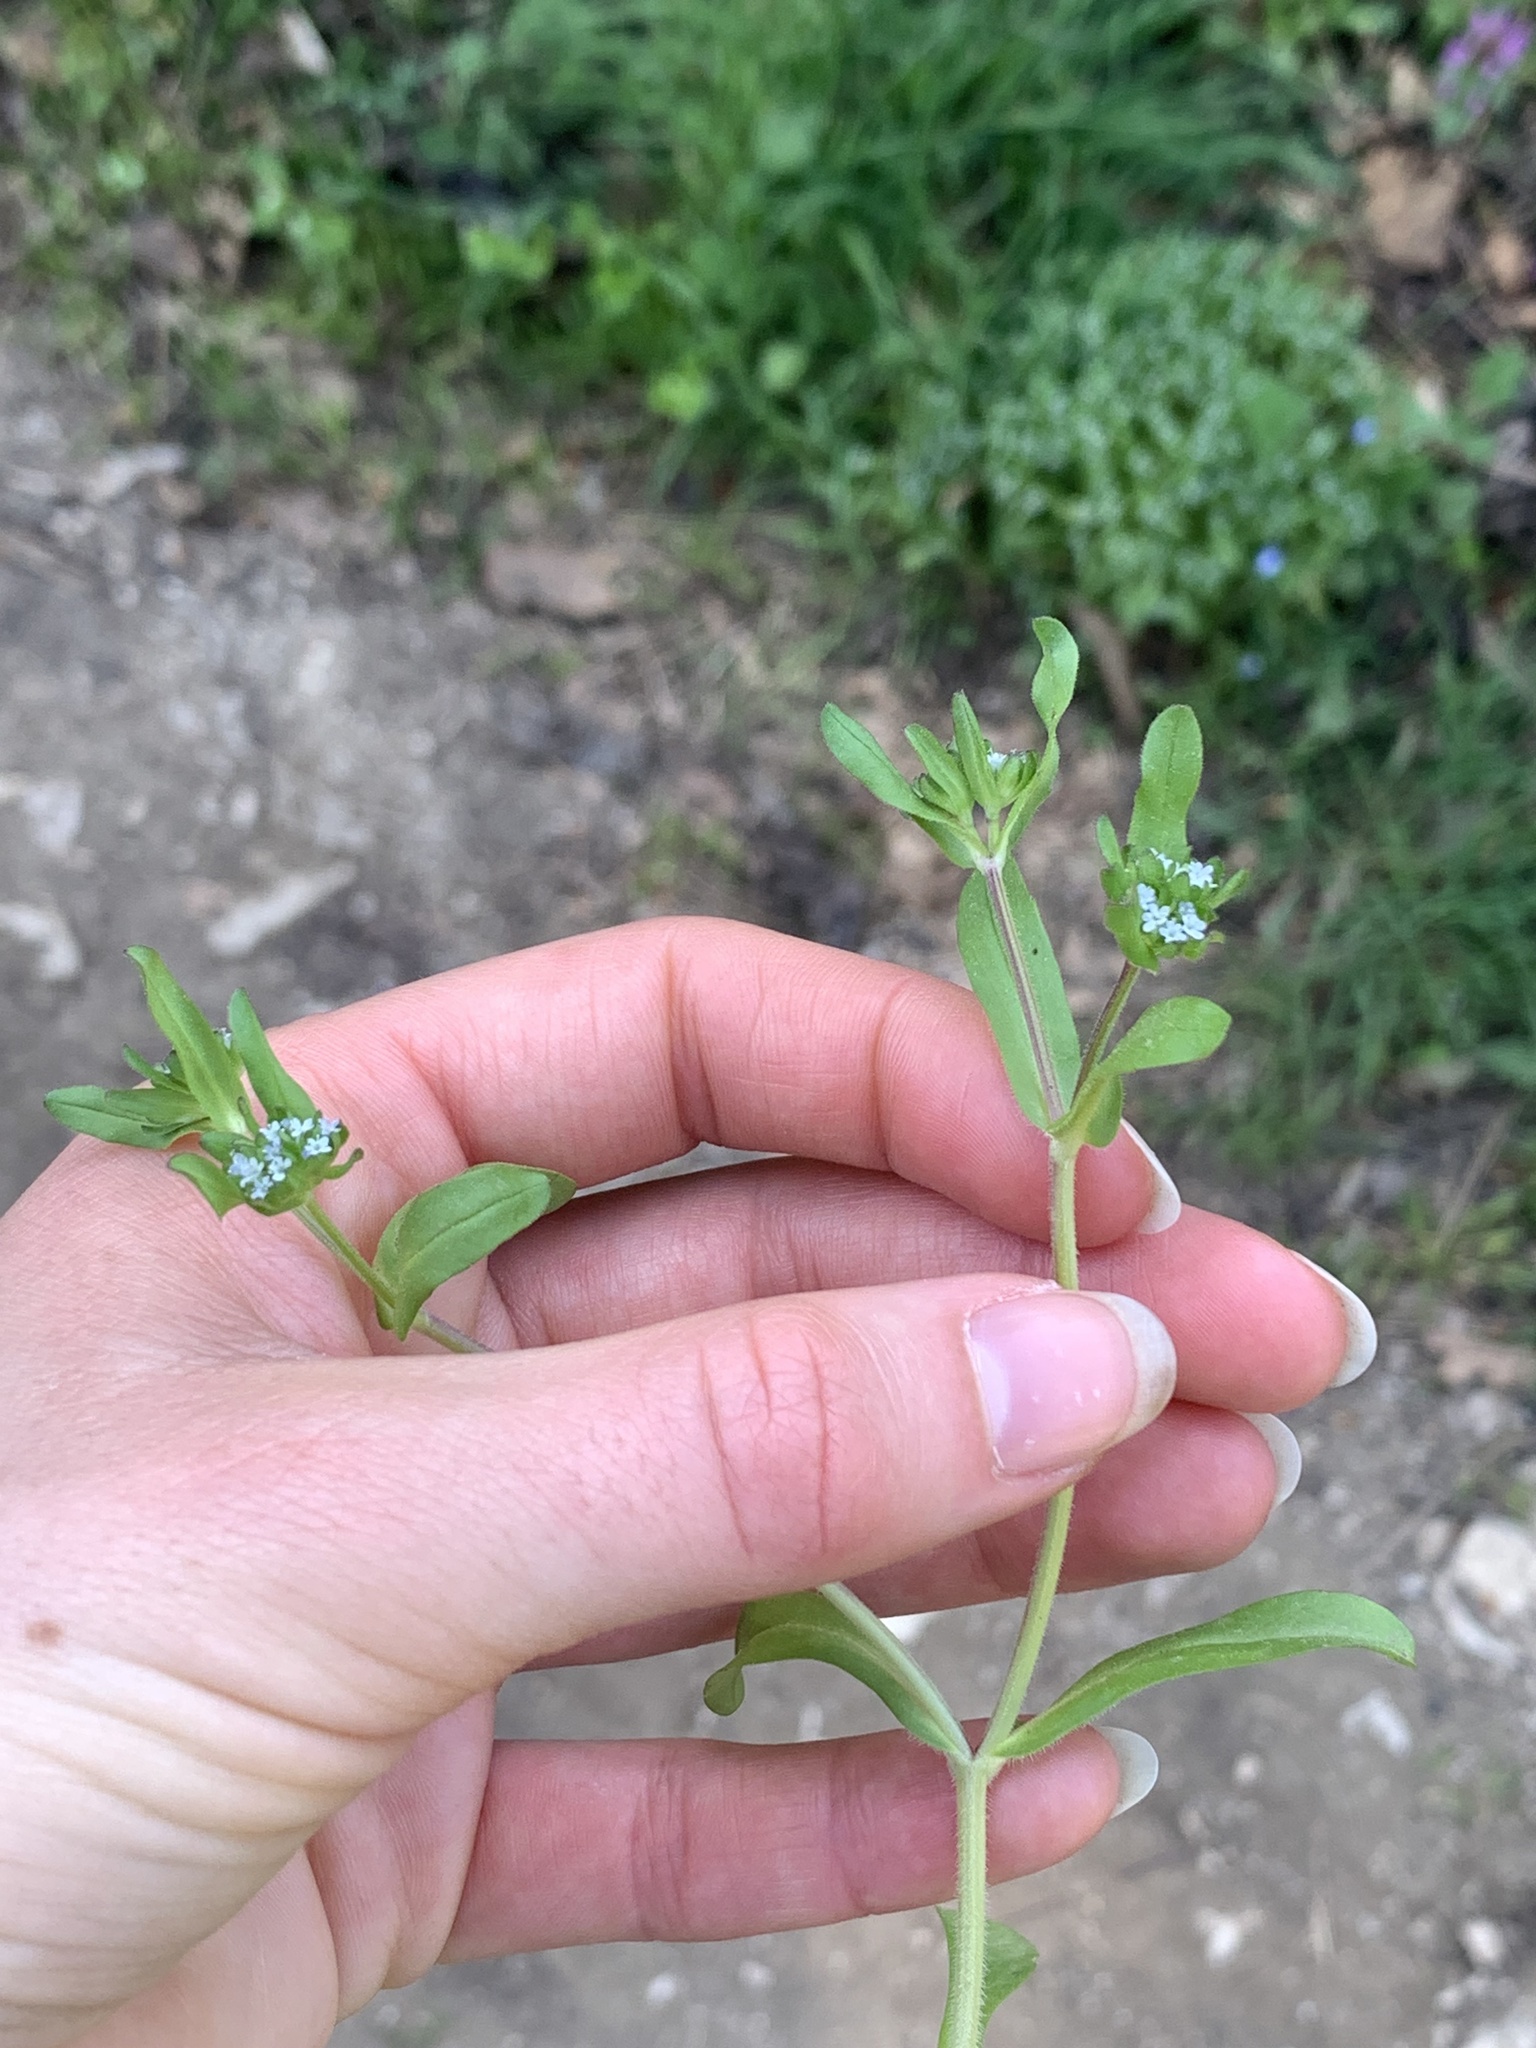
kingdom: Plantae
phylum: Tracheophyta
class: Magnoliopsida
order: Dipsacales
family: Caprifoliaceae
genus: Valerianella
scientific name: Valerianella locusta
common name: Common cornsalad
